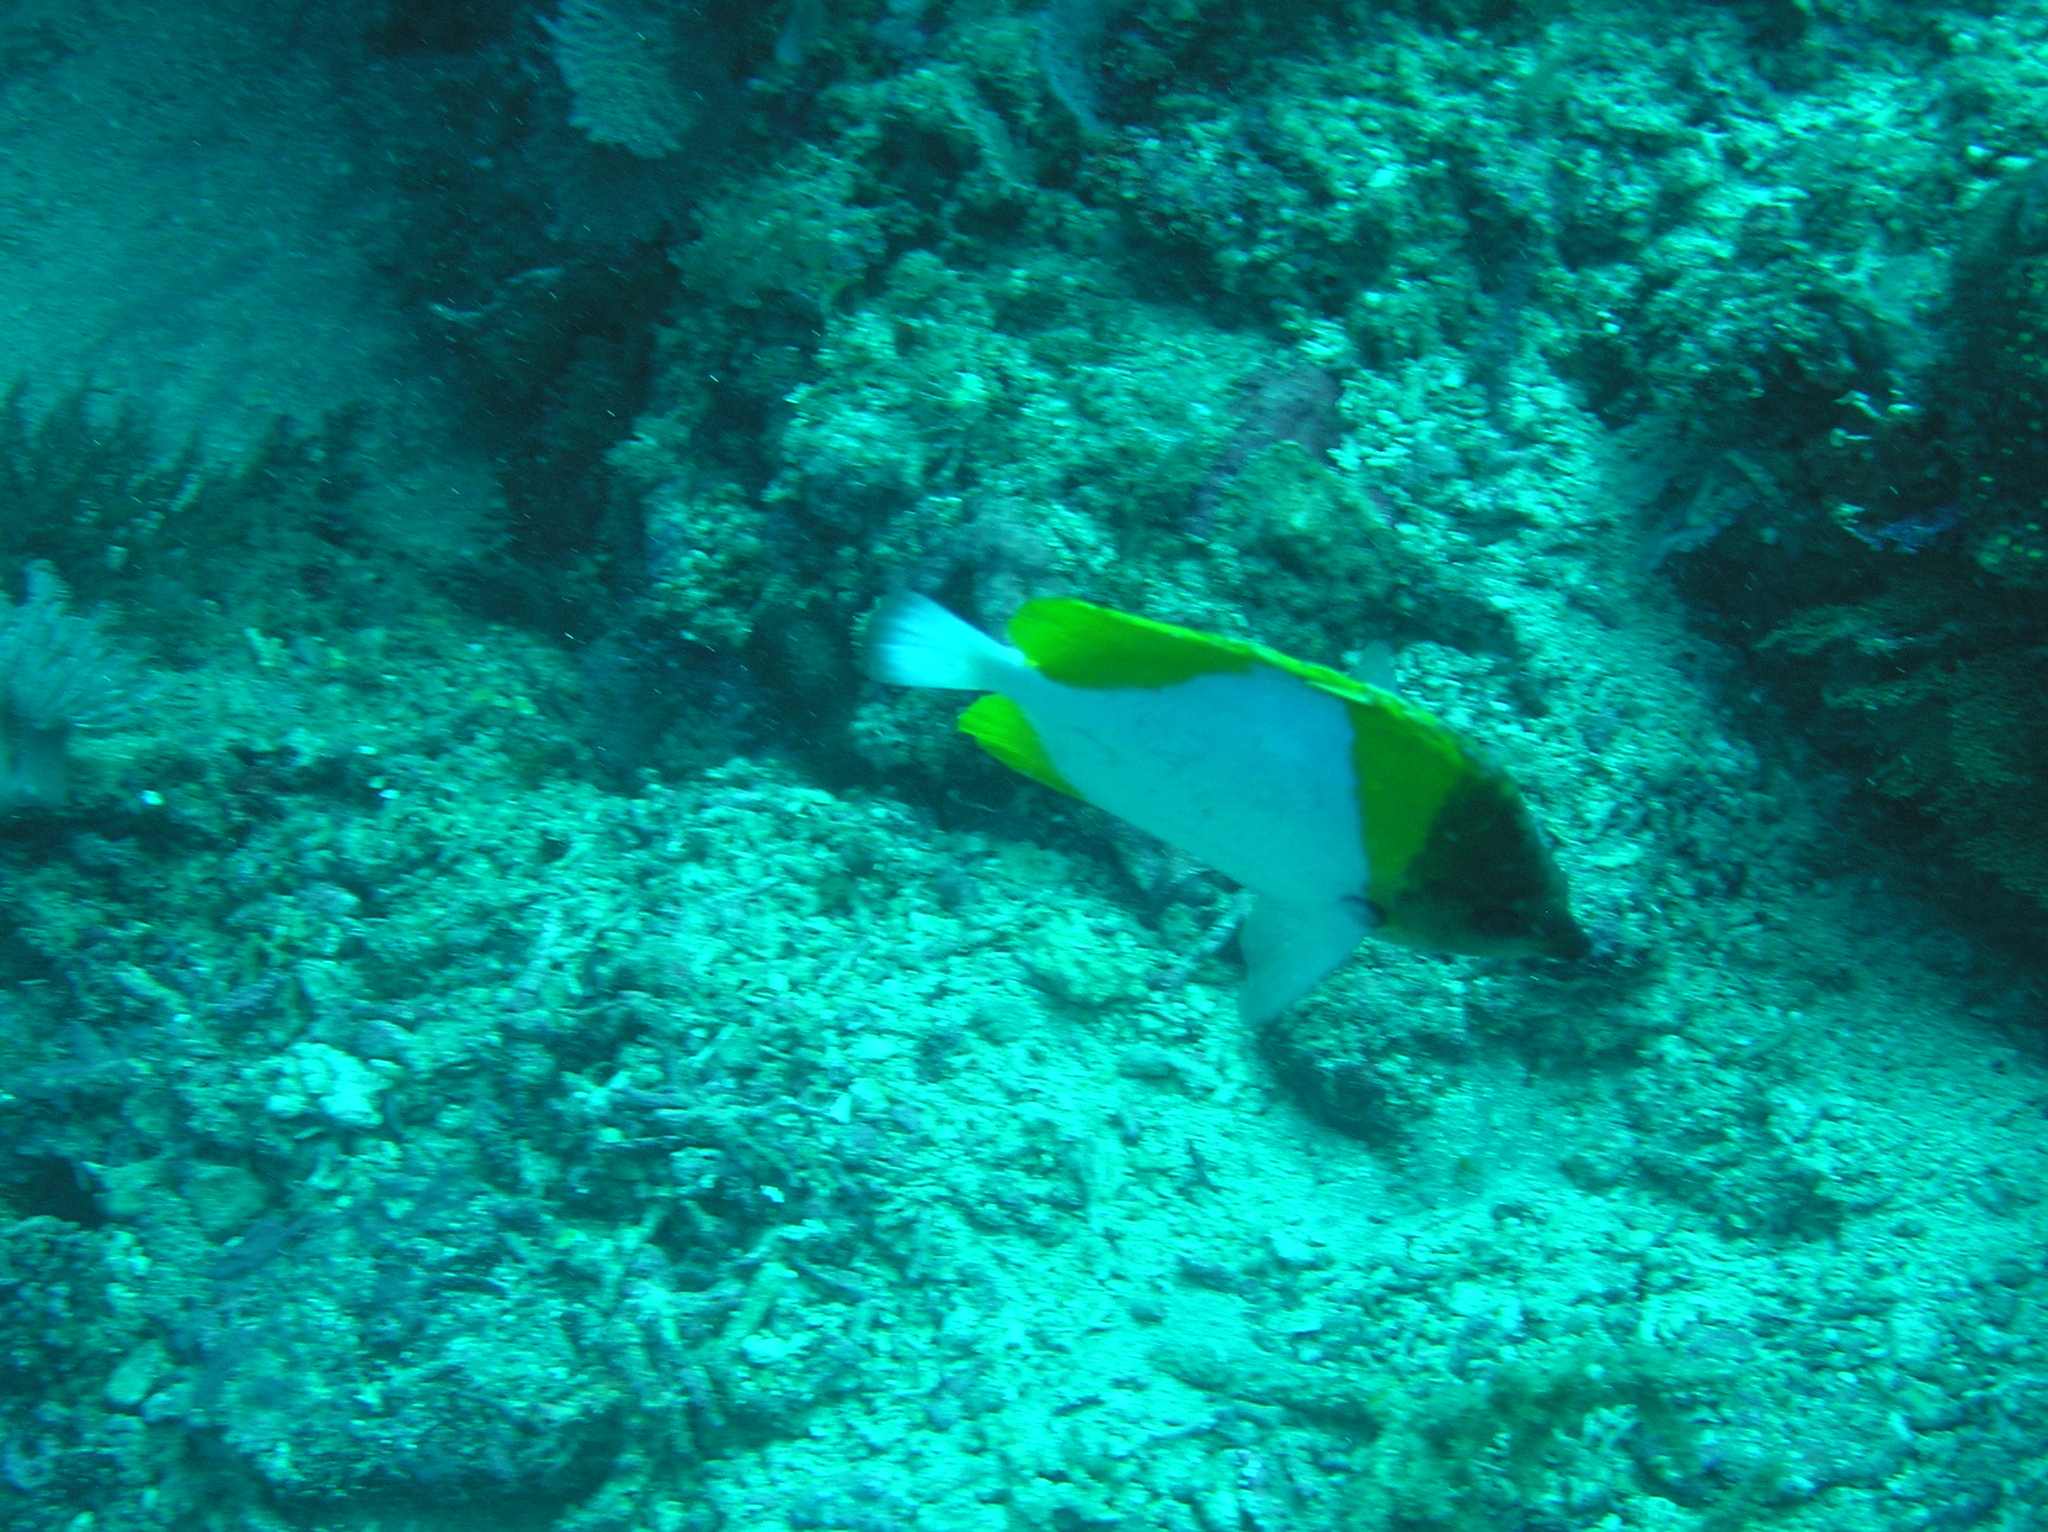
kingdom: Animalia
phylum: Chordata
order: Perciformes
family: Chaetodontidae
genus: Hemitaurichthys
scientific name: Hemitaurichthys polylepis
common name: Brushytoothed butterflyfish
